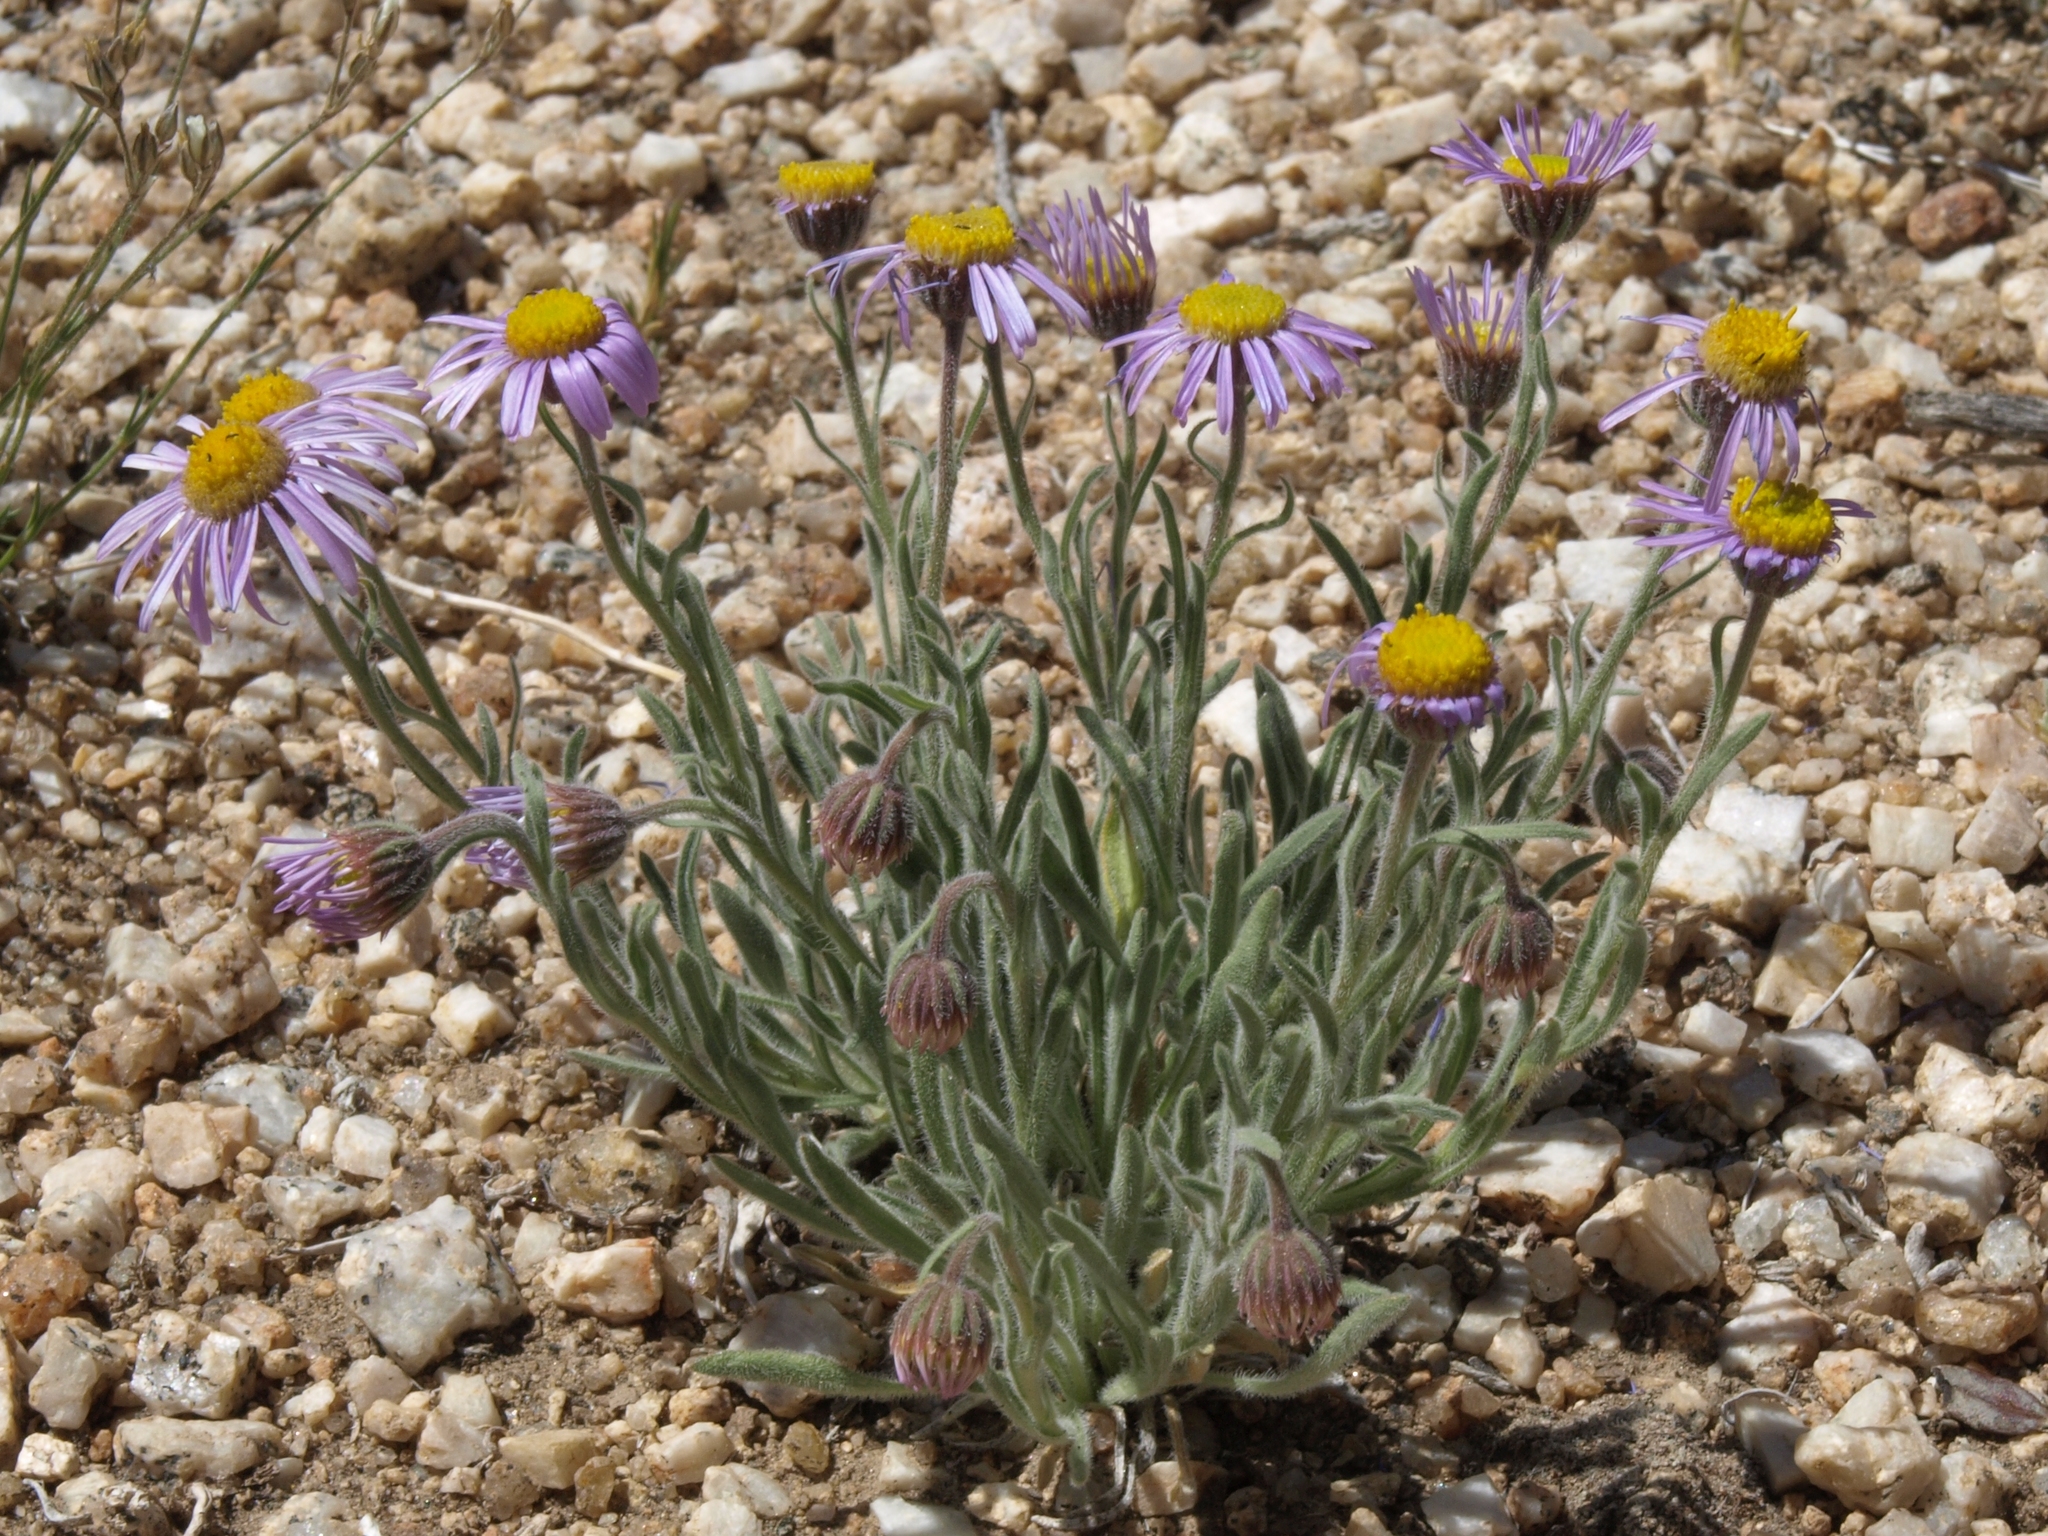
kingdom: Plantae
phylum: Tracheophyta
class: Magnoliopsida
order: Asterales
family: Asteraceae
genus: Erigeron
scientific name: Erigeron clokeyi
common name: Clokey's fleabane
